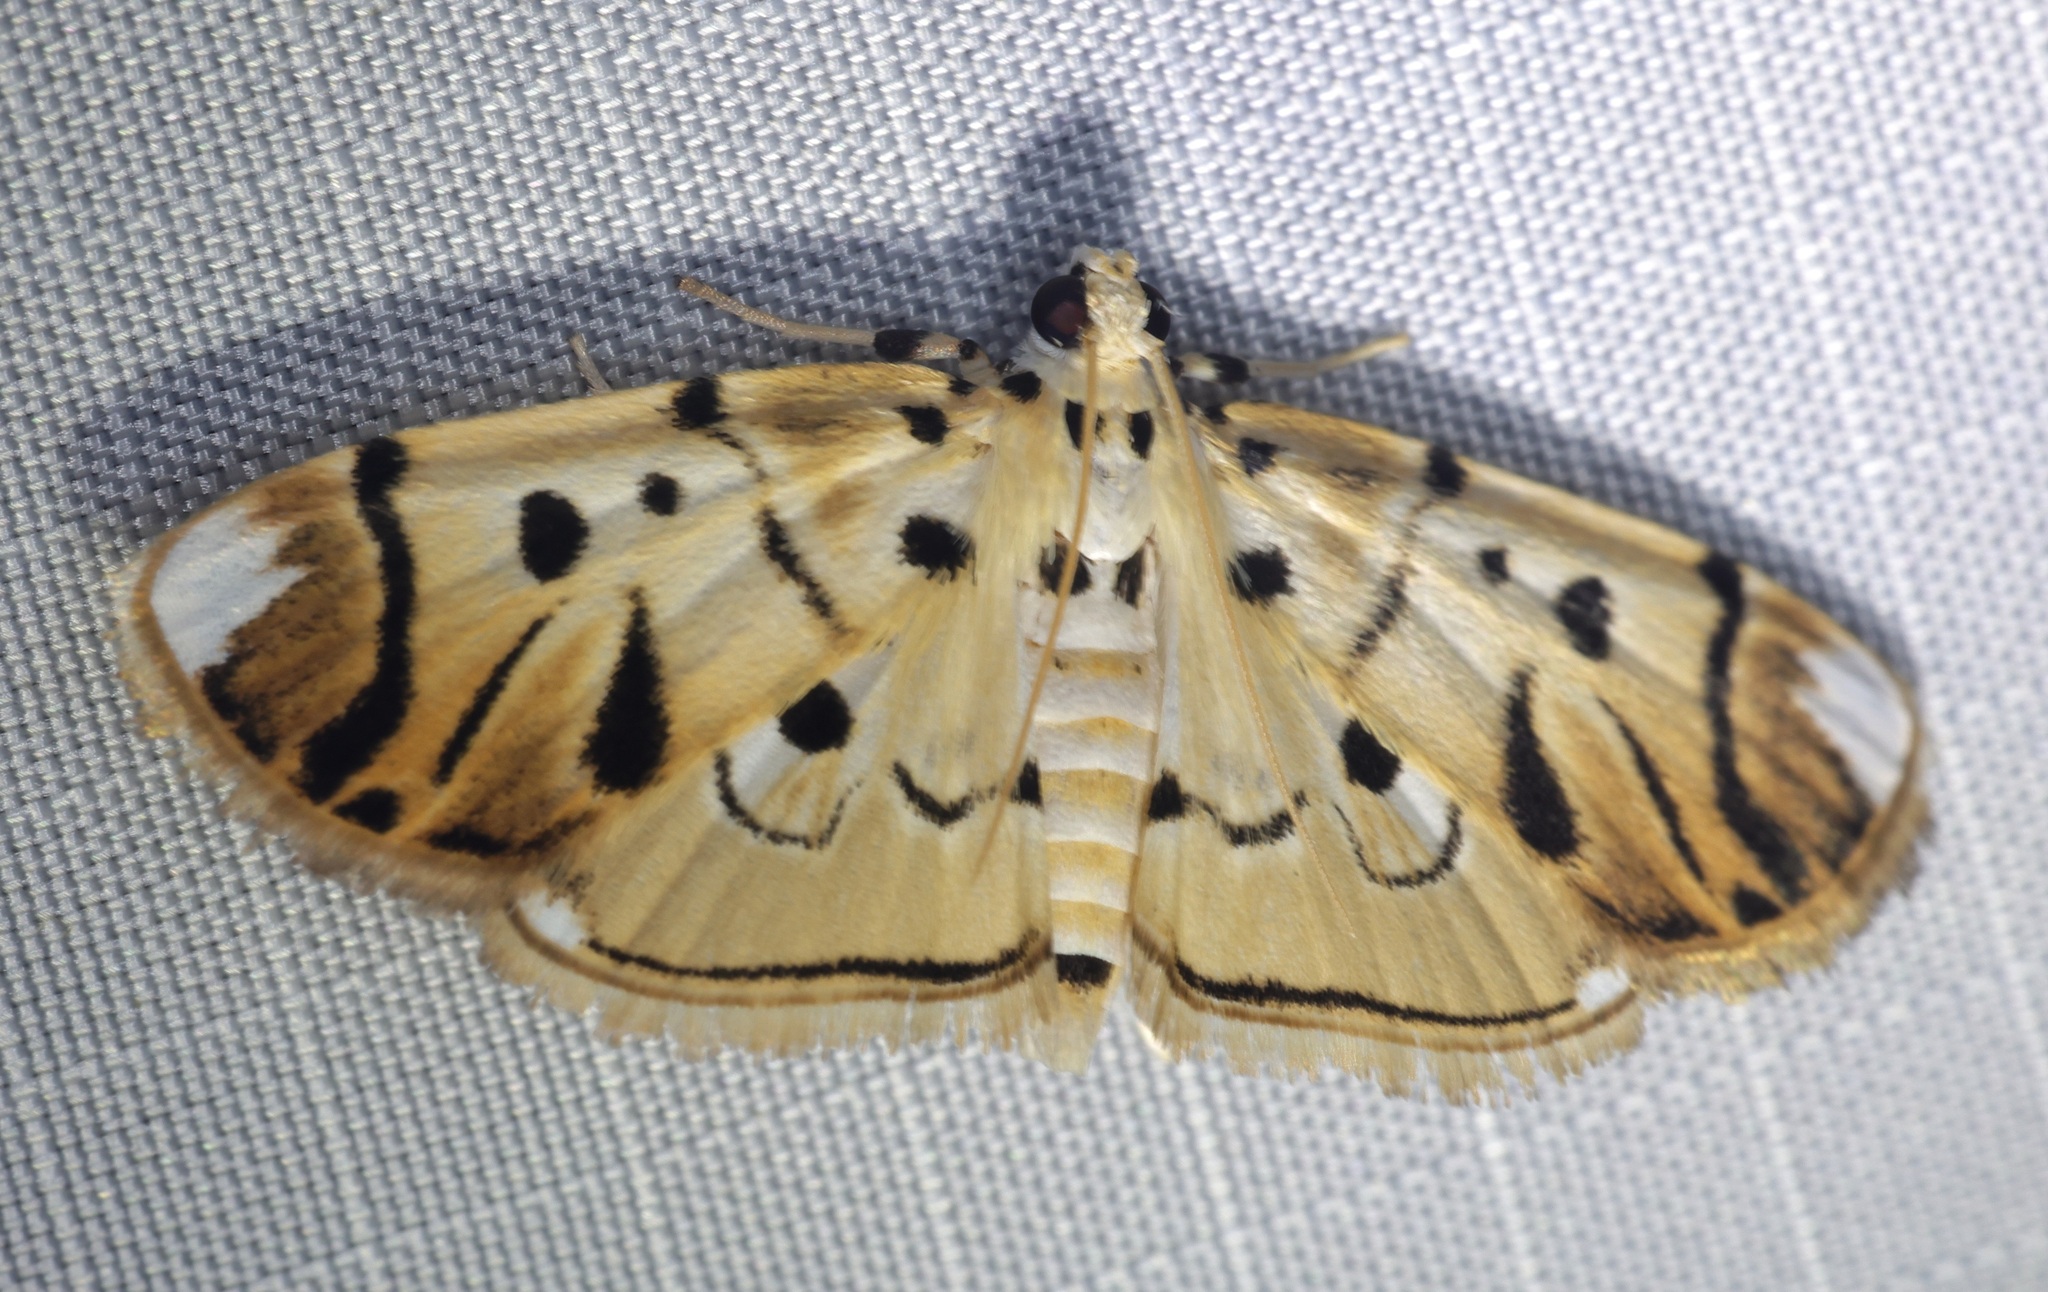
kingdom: Animalia
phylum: Arthropoda
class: Insecta
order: Lepidoptera
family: Crambidae
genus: Pycnarmon
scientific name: Pycnarmon radiata
